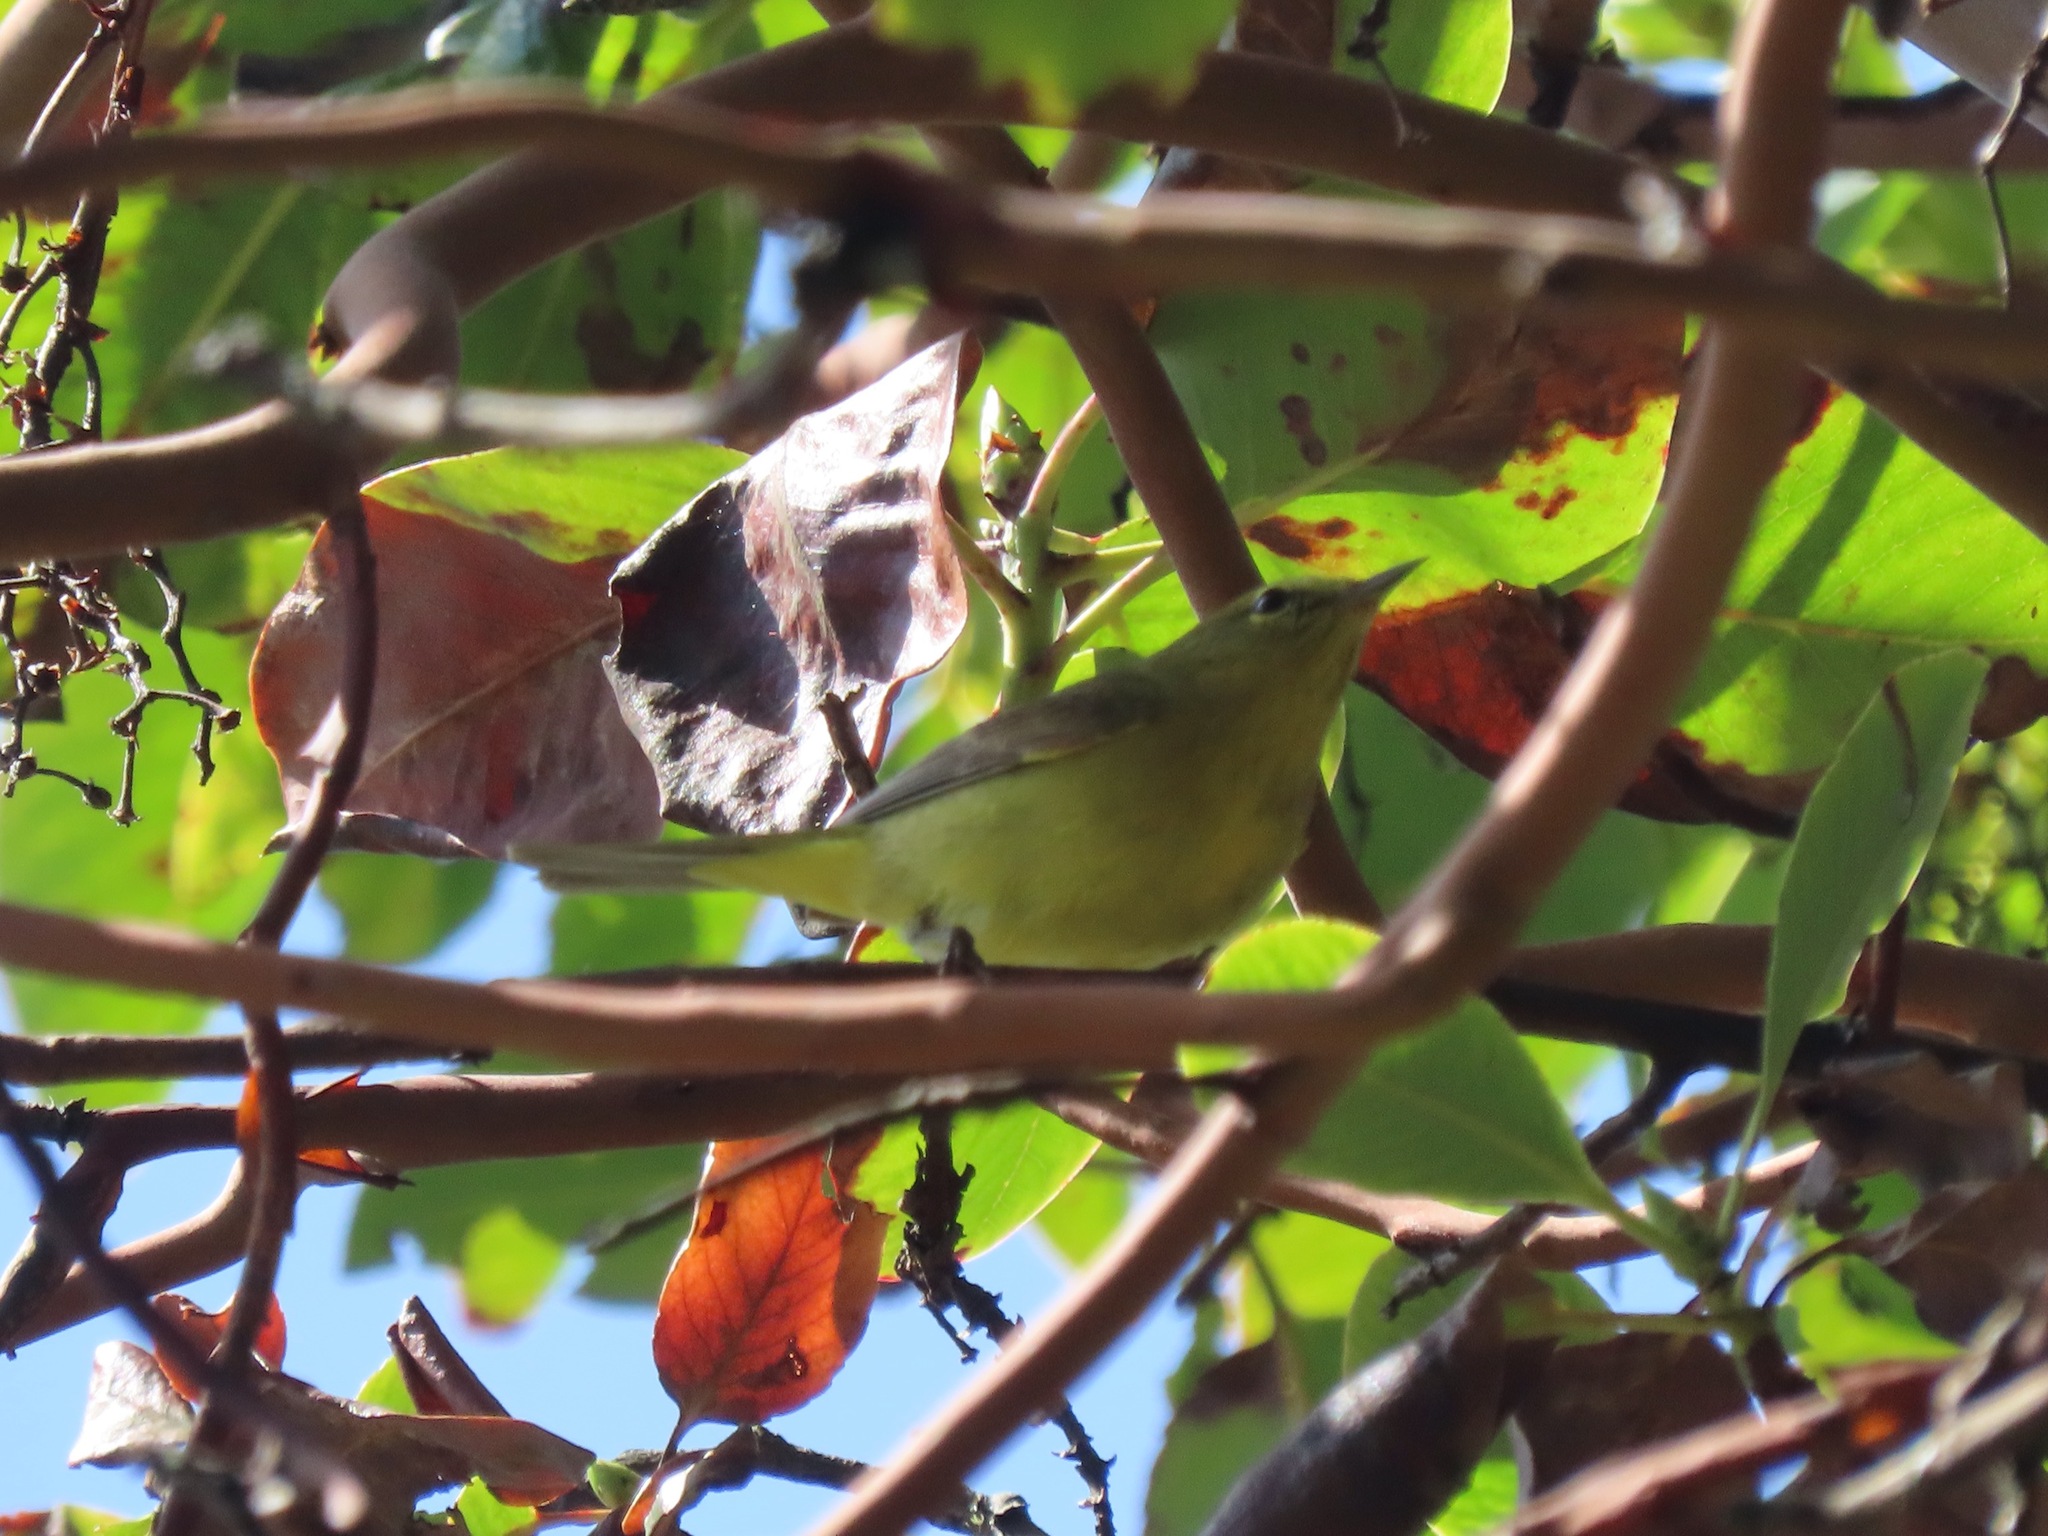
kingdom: Animalia
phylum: Chordata
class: Aves
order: Passeriformes
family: Parulidae
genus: Leiothlypis
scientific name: Leiothlypis celata
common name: Orange-crowned warbler
